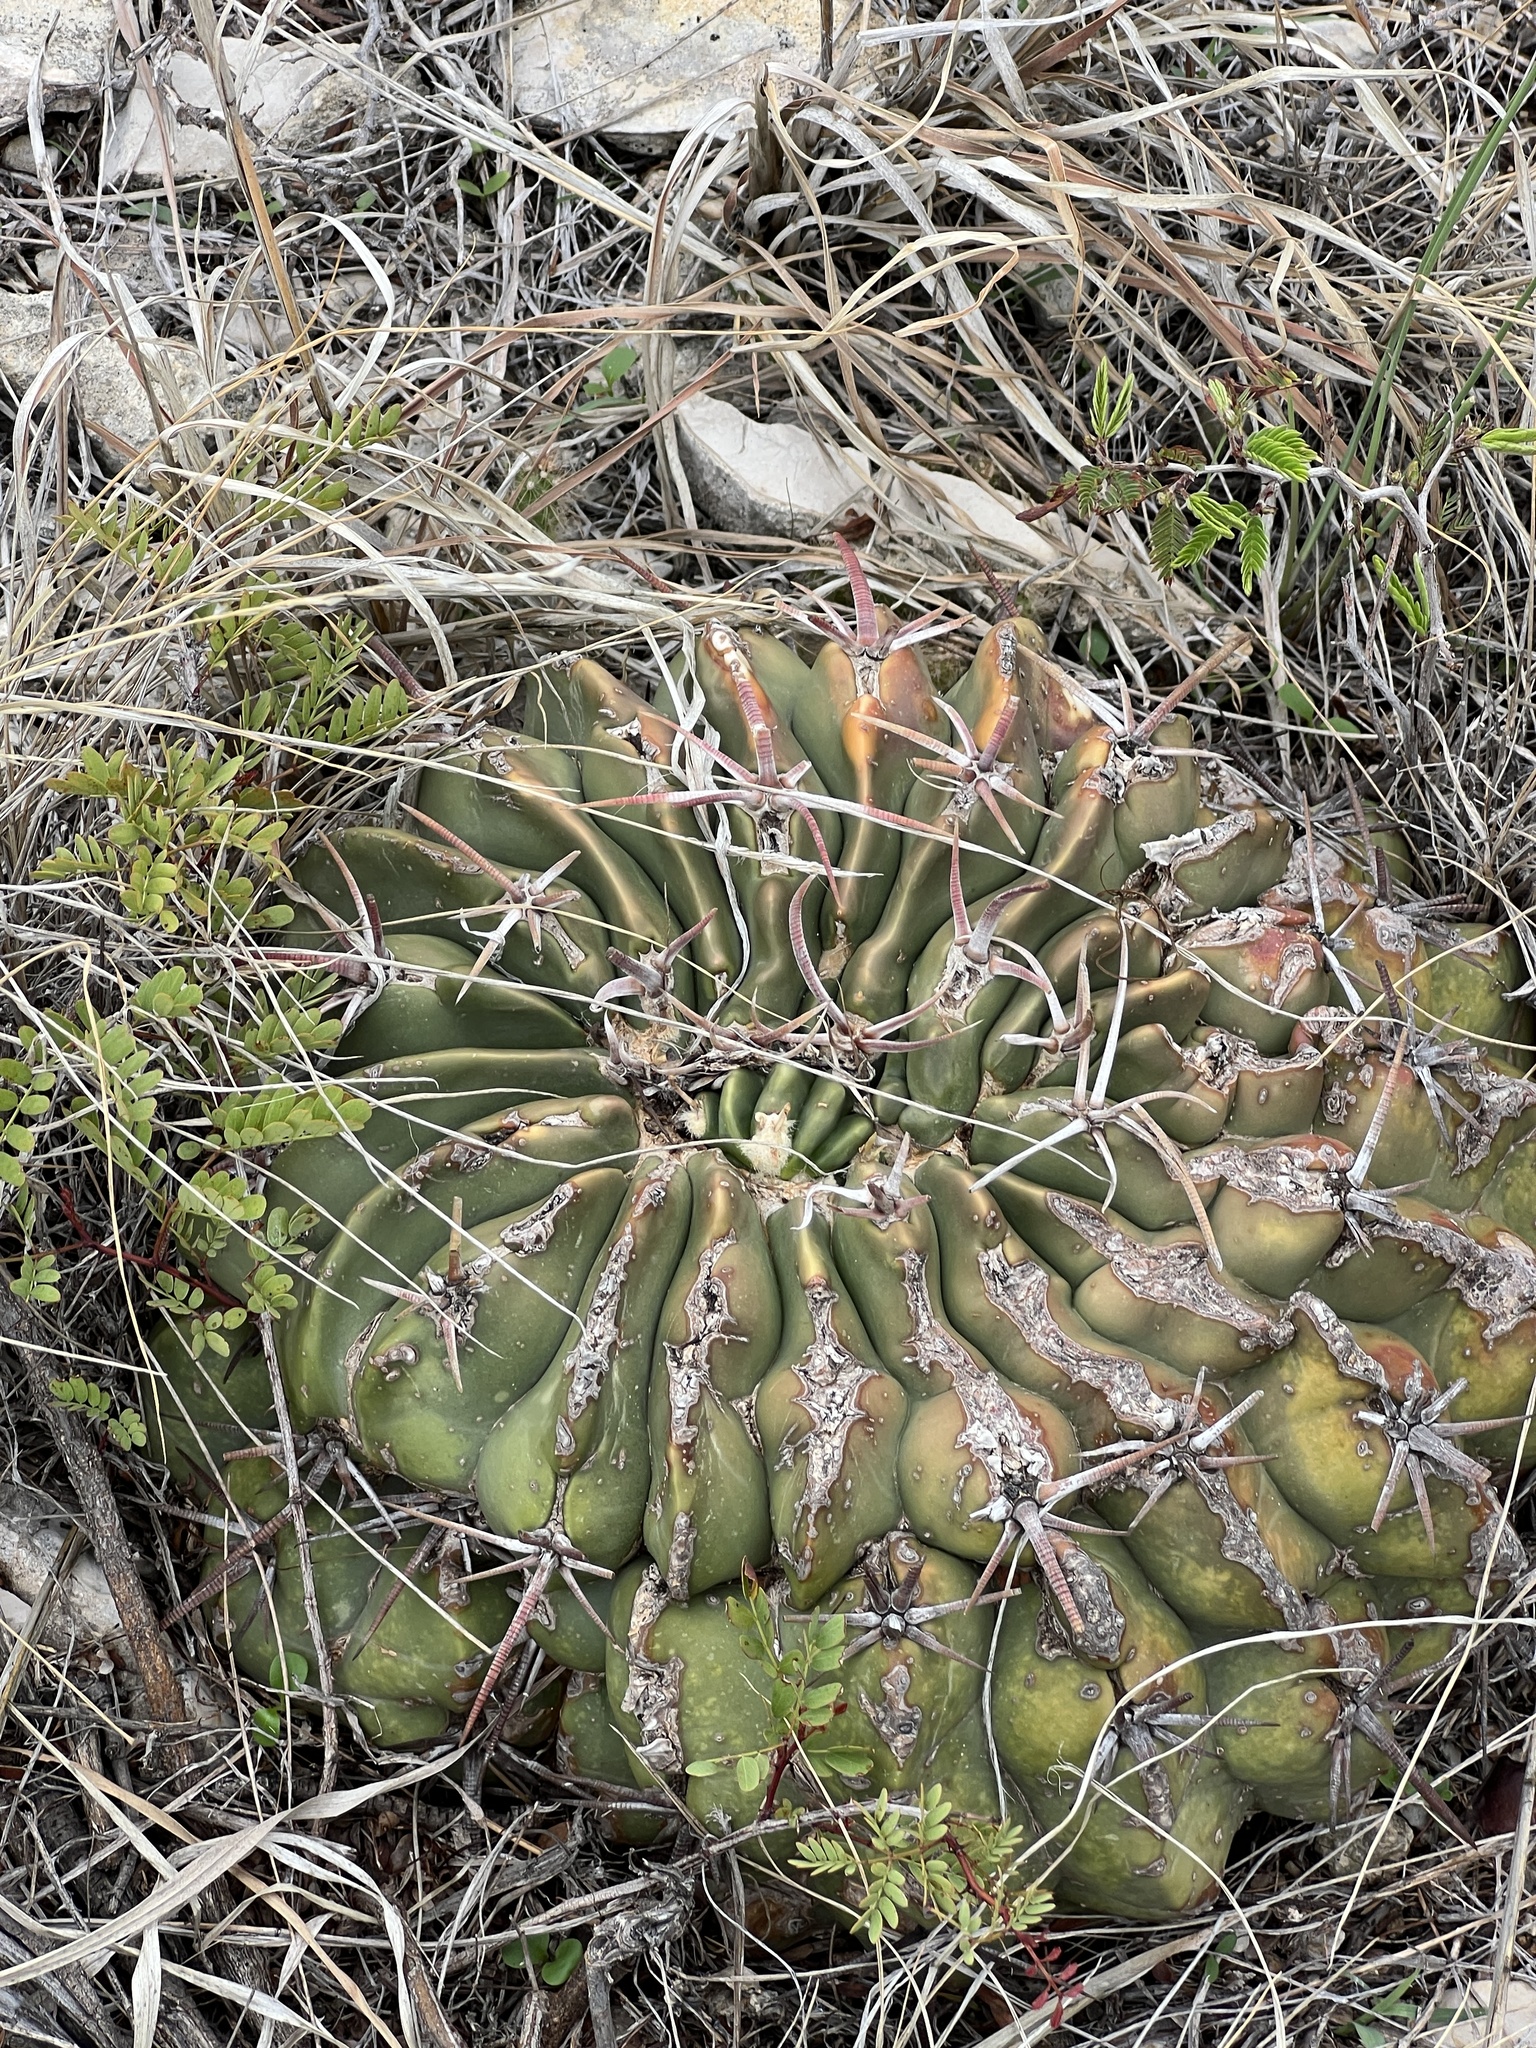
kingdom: Plantae
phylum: Tracheophyta
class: Magnoliopsida
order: Caryophyllales
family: Cactaceae
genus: Echinocactus
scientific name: Echinocactus texensis
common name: Devil's pincushion
